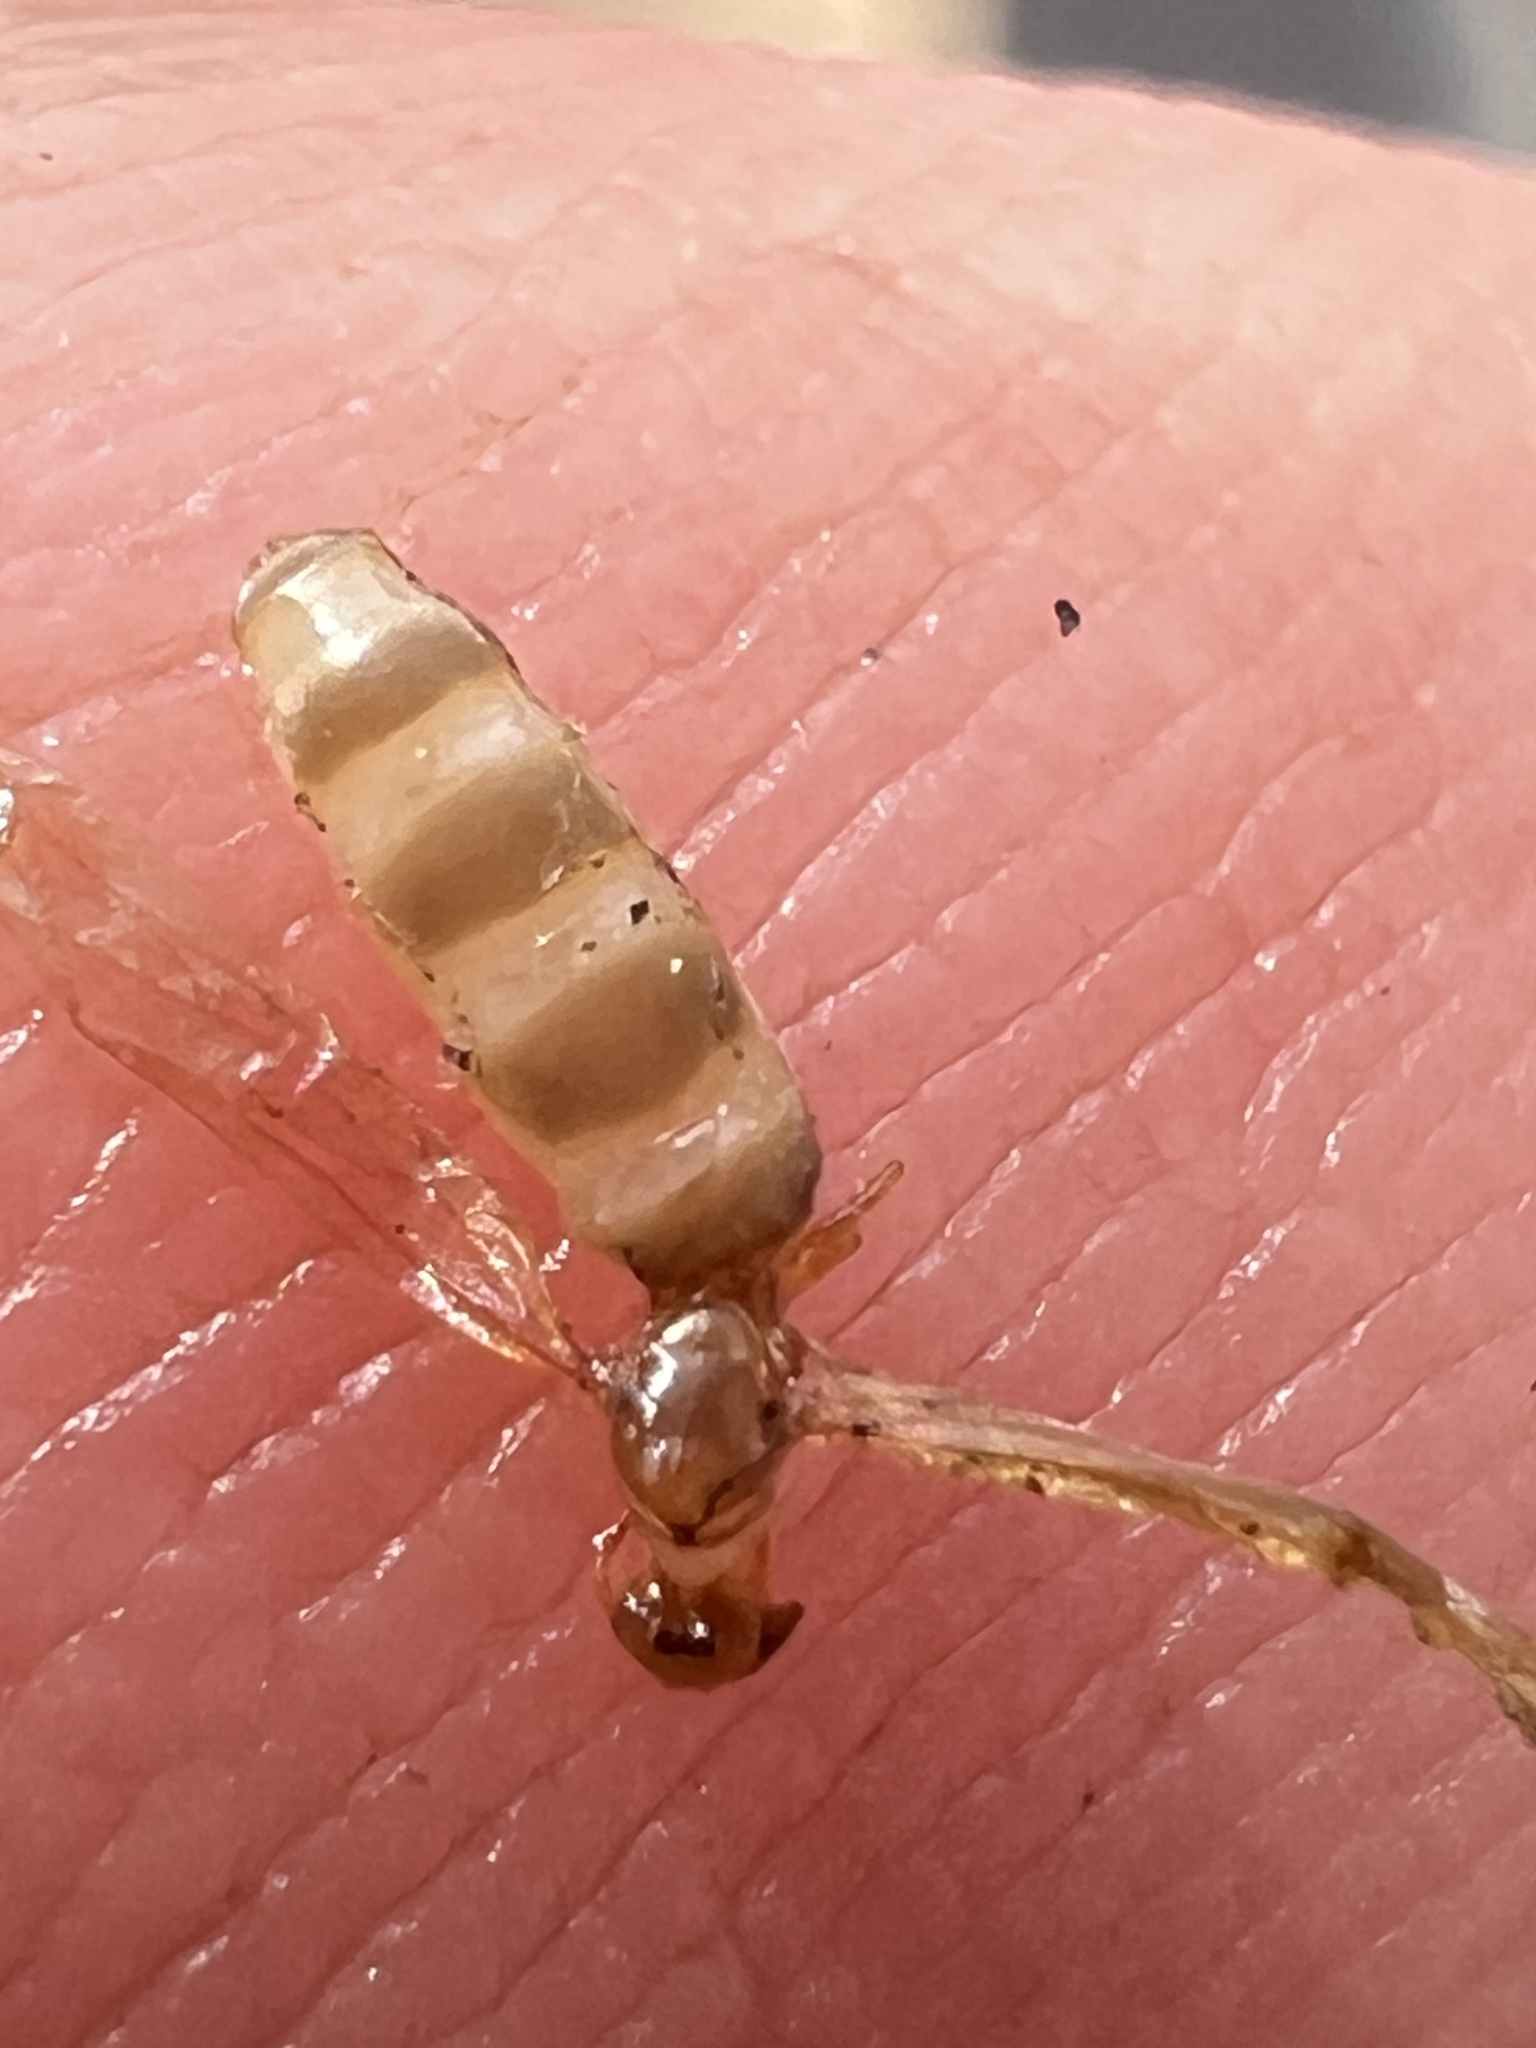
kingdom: Animalia
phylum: Arthropoda
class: Insecta
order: Hymenoptera
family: Formicidae
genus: Brachymyrmex
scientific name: Brachymyrmex depilis
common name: Hairless rover ant
